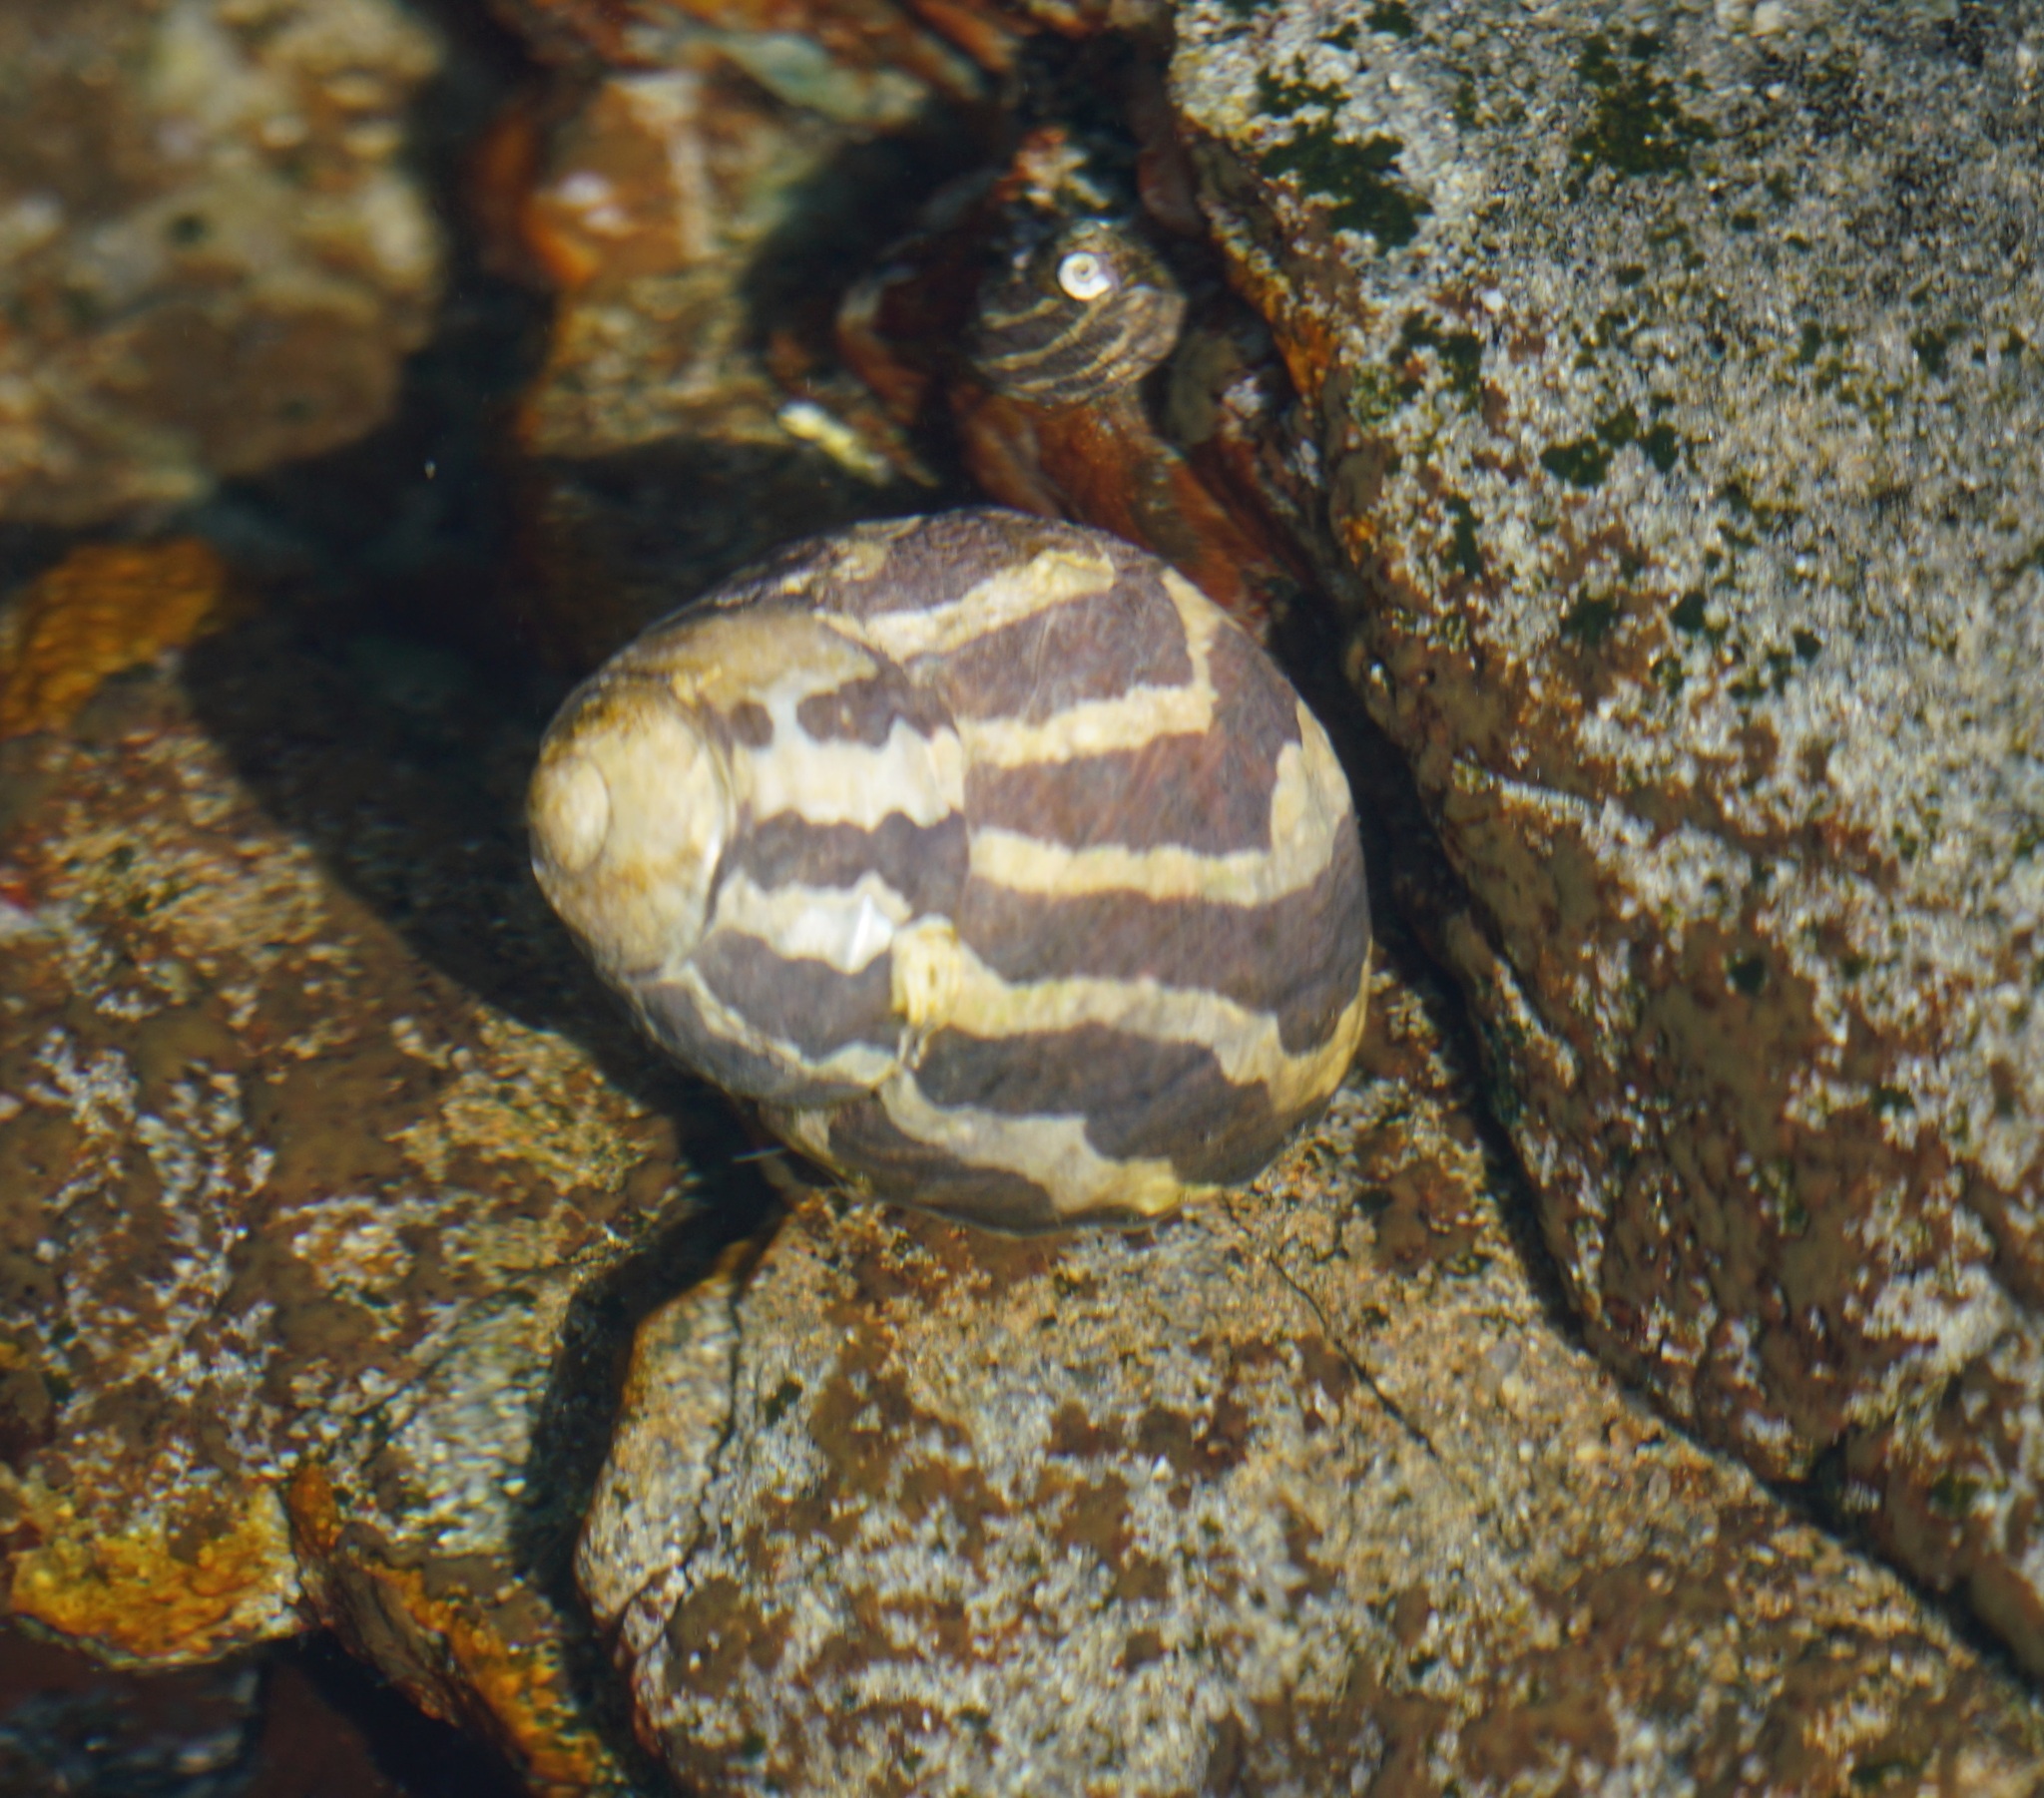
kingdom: Animalia
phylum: Mollusca
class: Gastropoda
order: Trochida
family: Trochidae
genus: Austrocochlea
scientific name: Austrocochlea porcata
